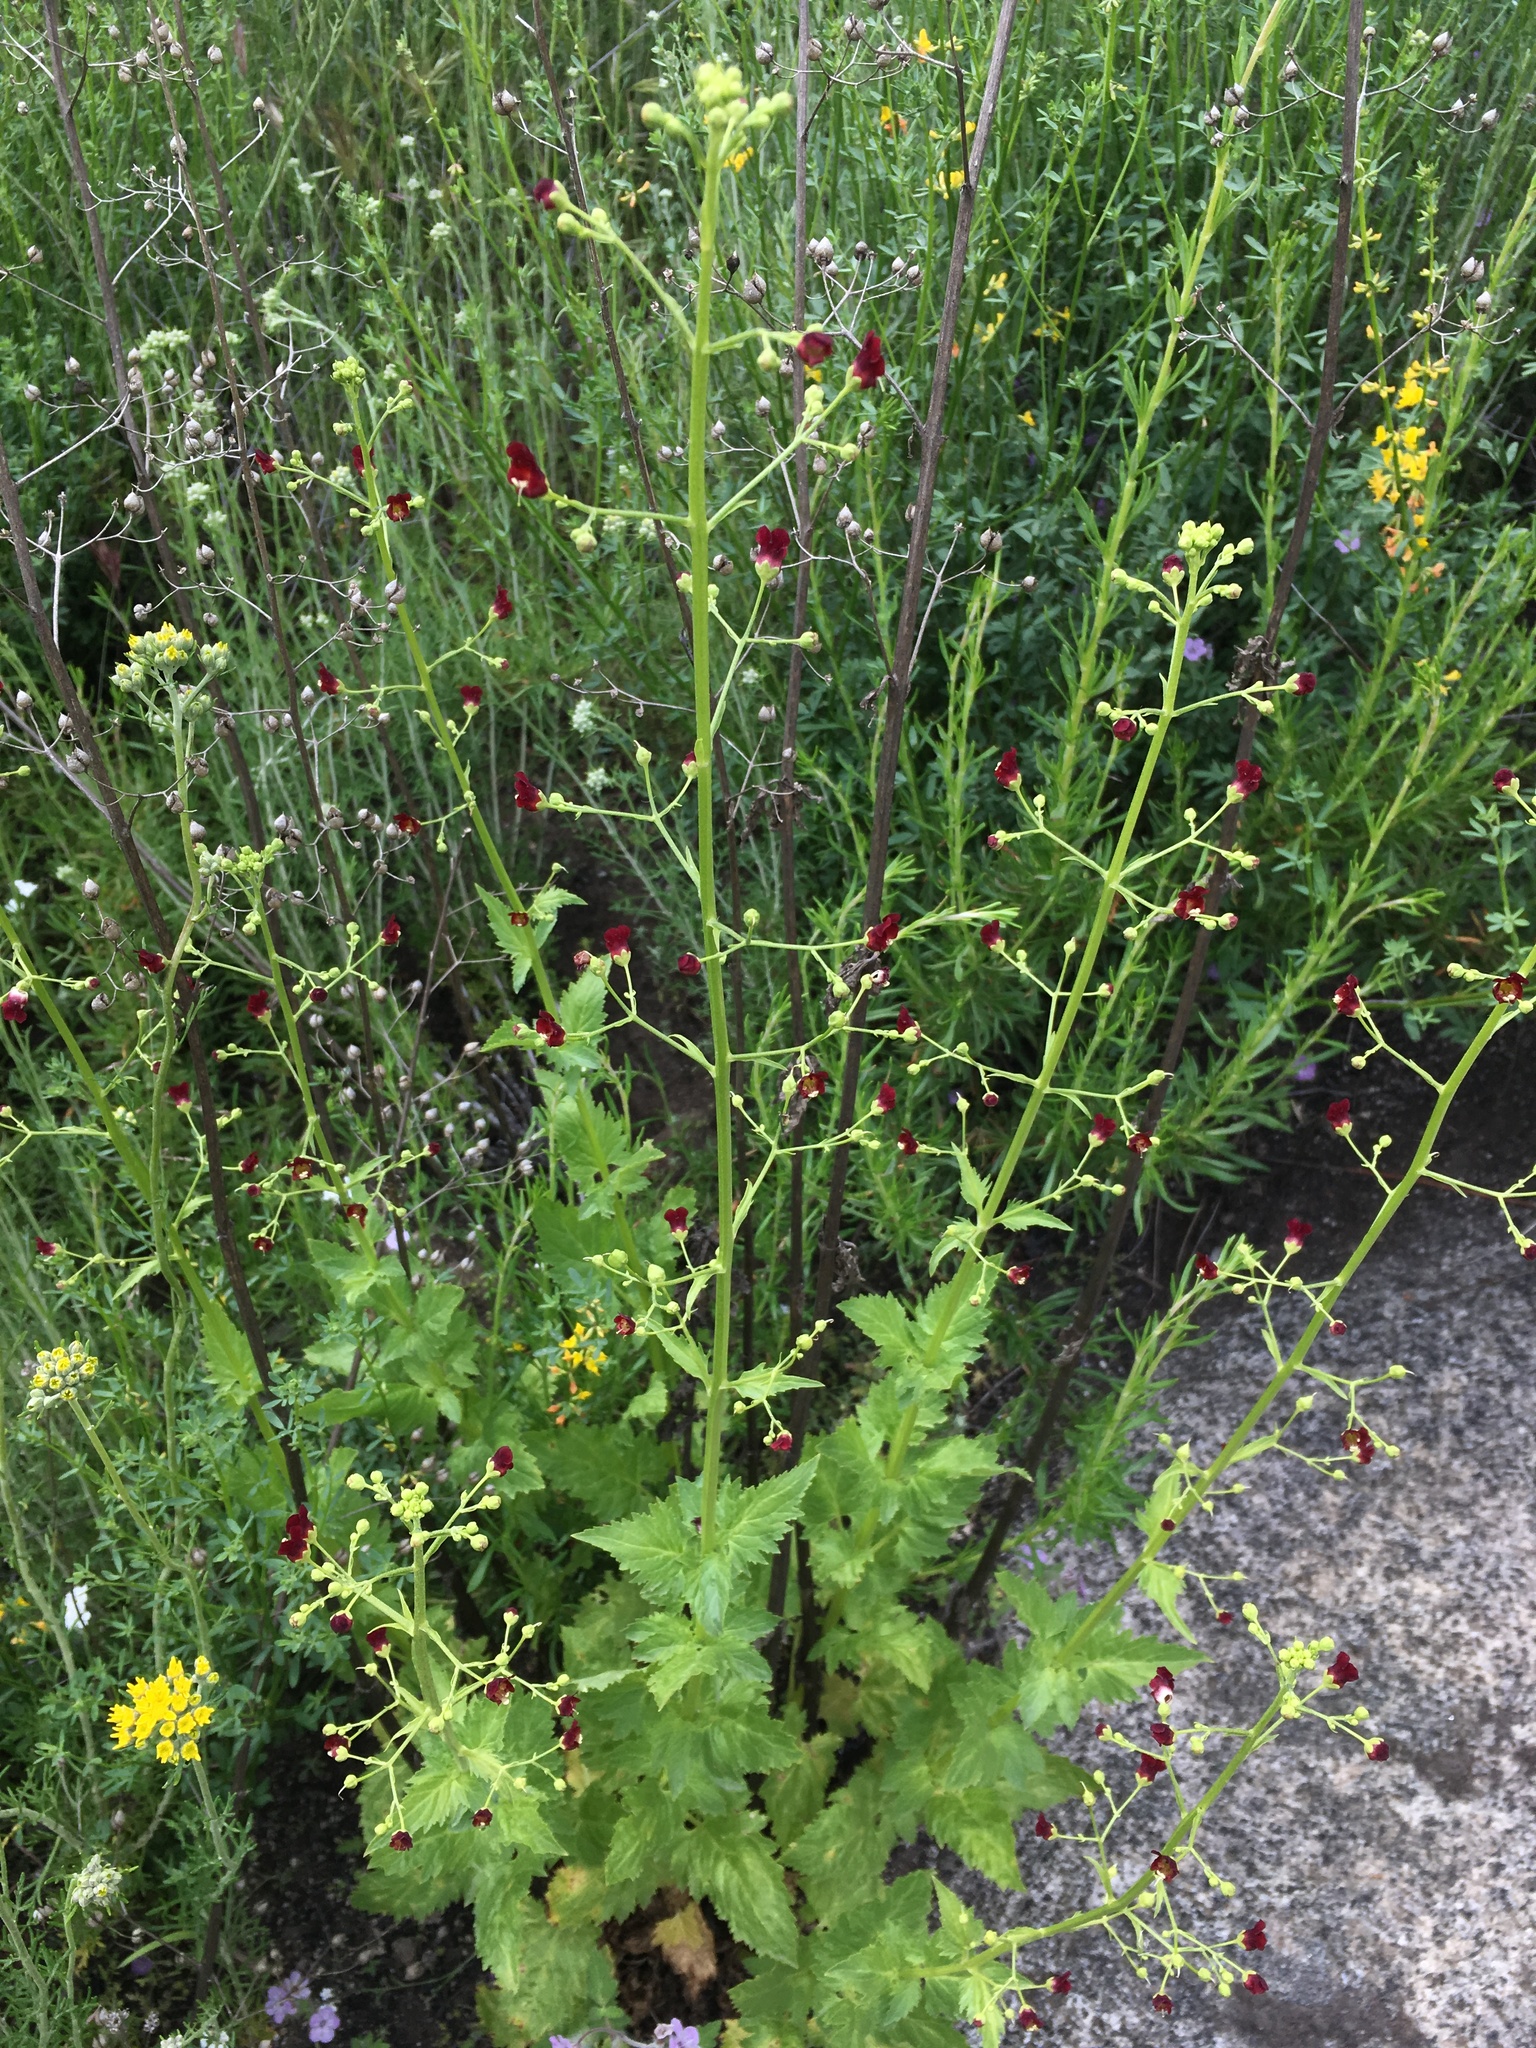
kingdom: Plantae
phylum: Tracheophyta
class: Magnoliopsida
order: Lamiales
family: Scrophulariaceae
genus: Scrophularia
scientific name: Scrophularia californica
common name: California figwort
